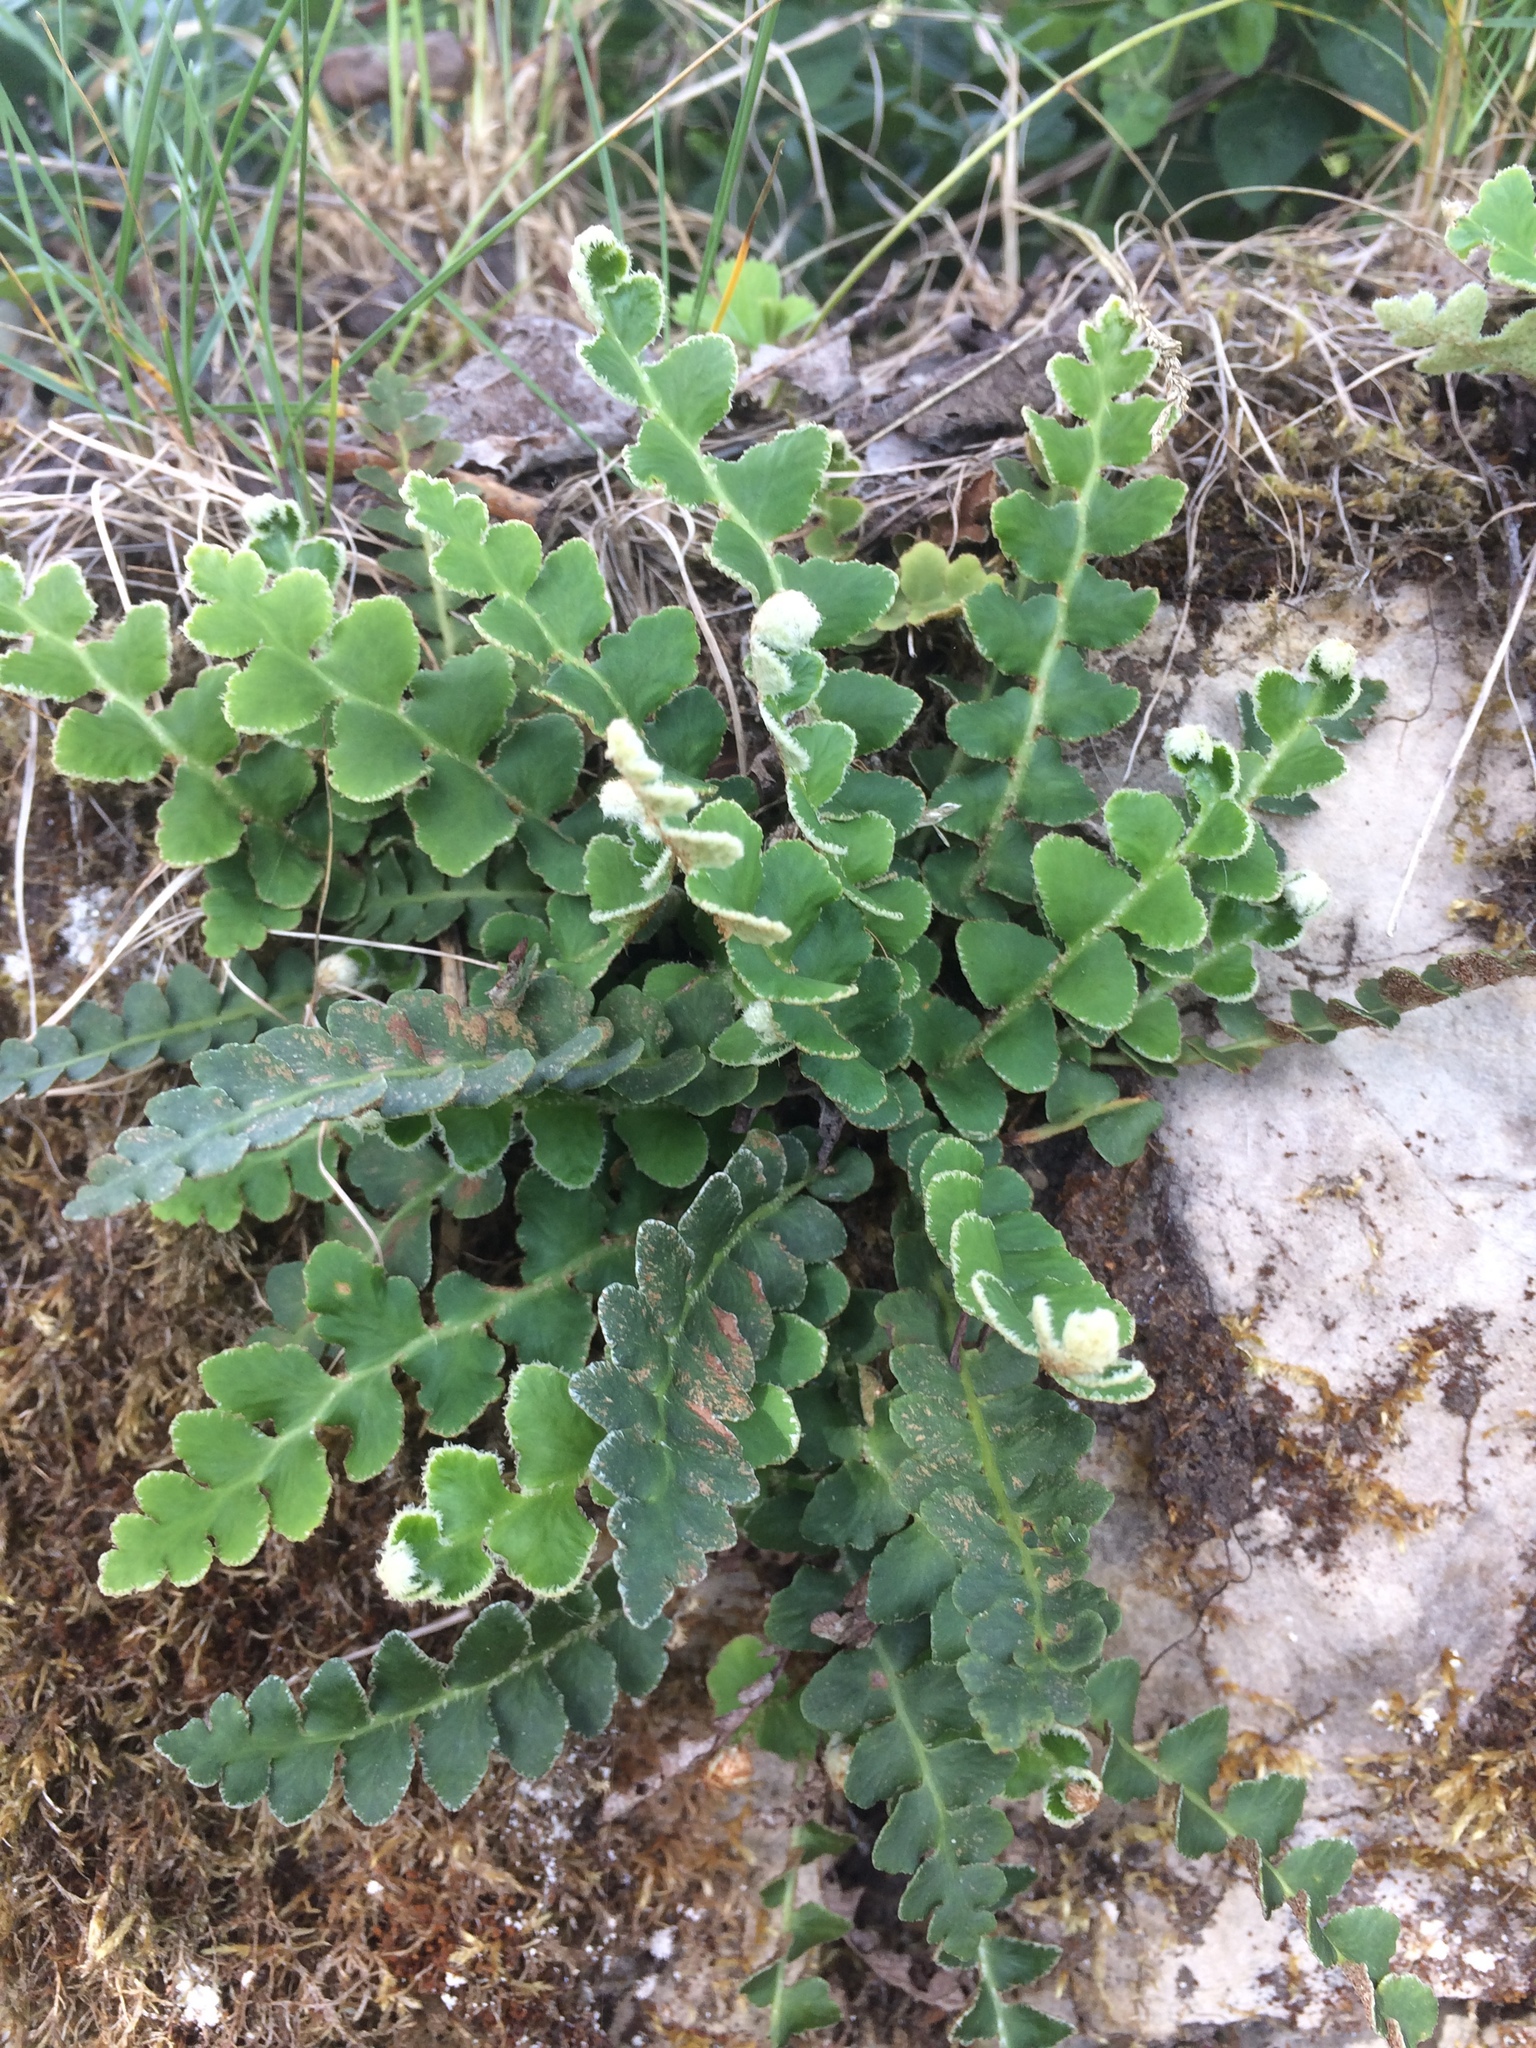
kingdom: Plantae
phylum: Tracheophyta
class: Polypodiopsida
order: Polypodiales
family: Aspleniaceae
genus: Asplenium
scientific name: Asplenium ceterach
